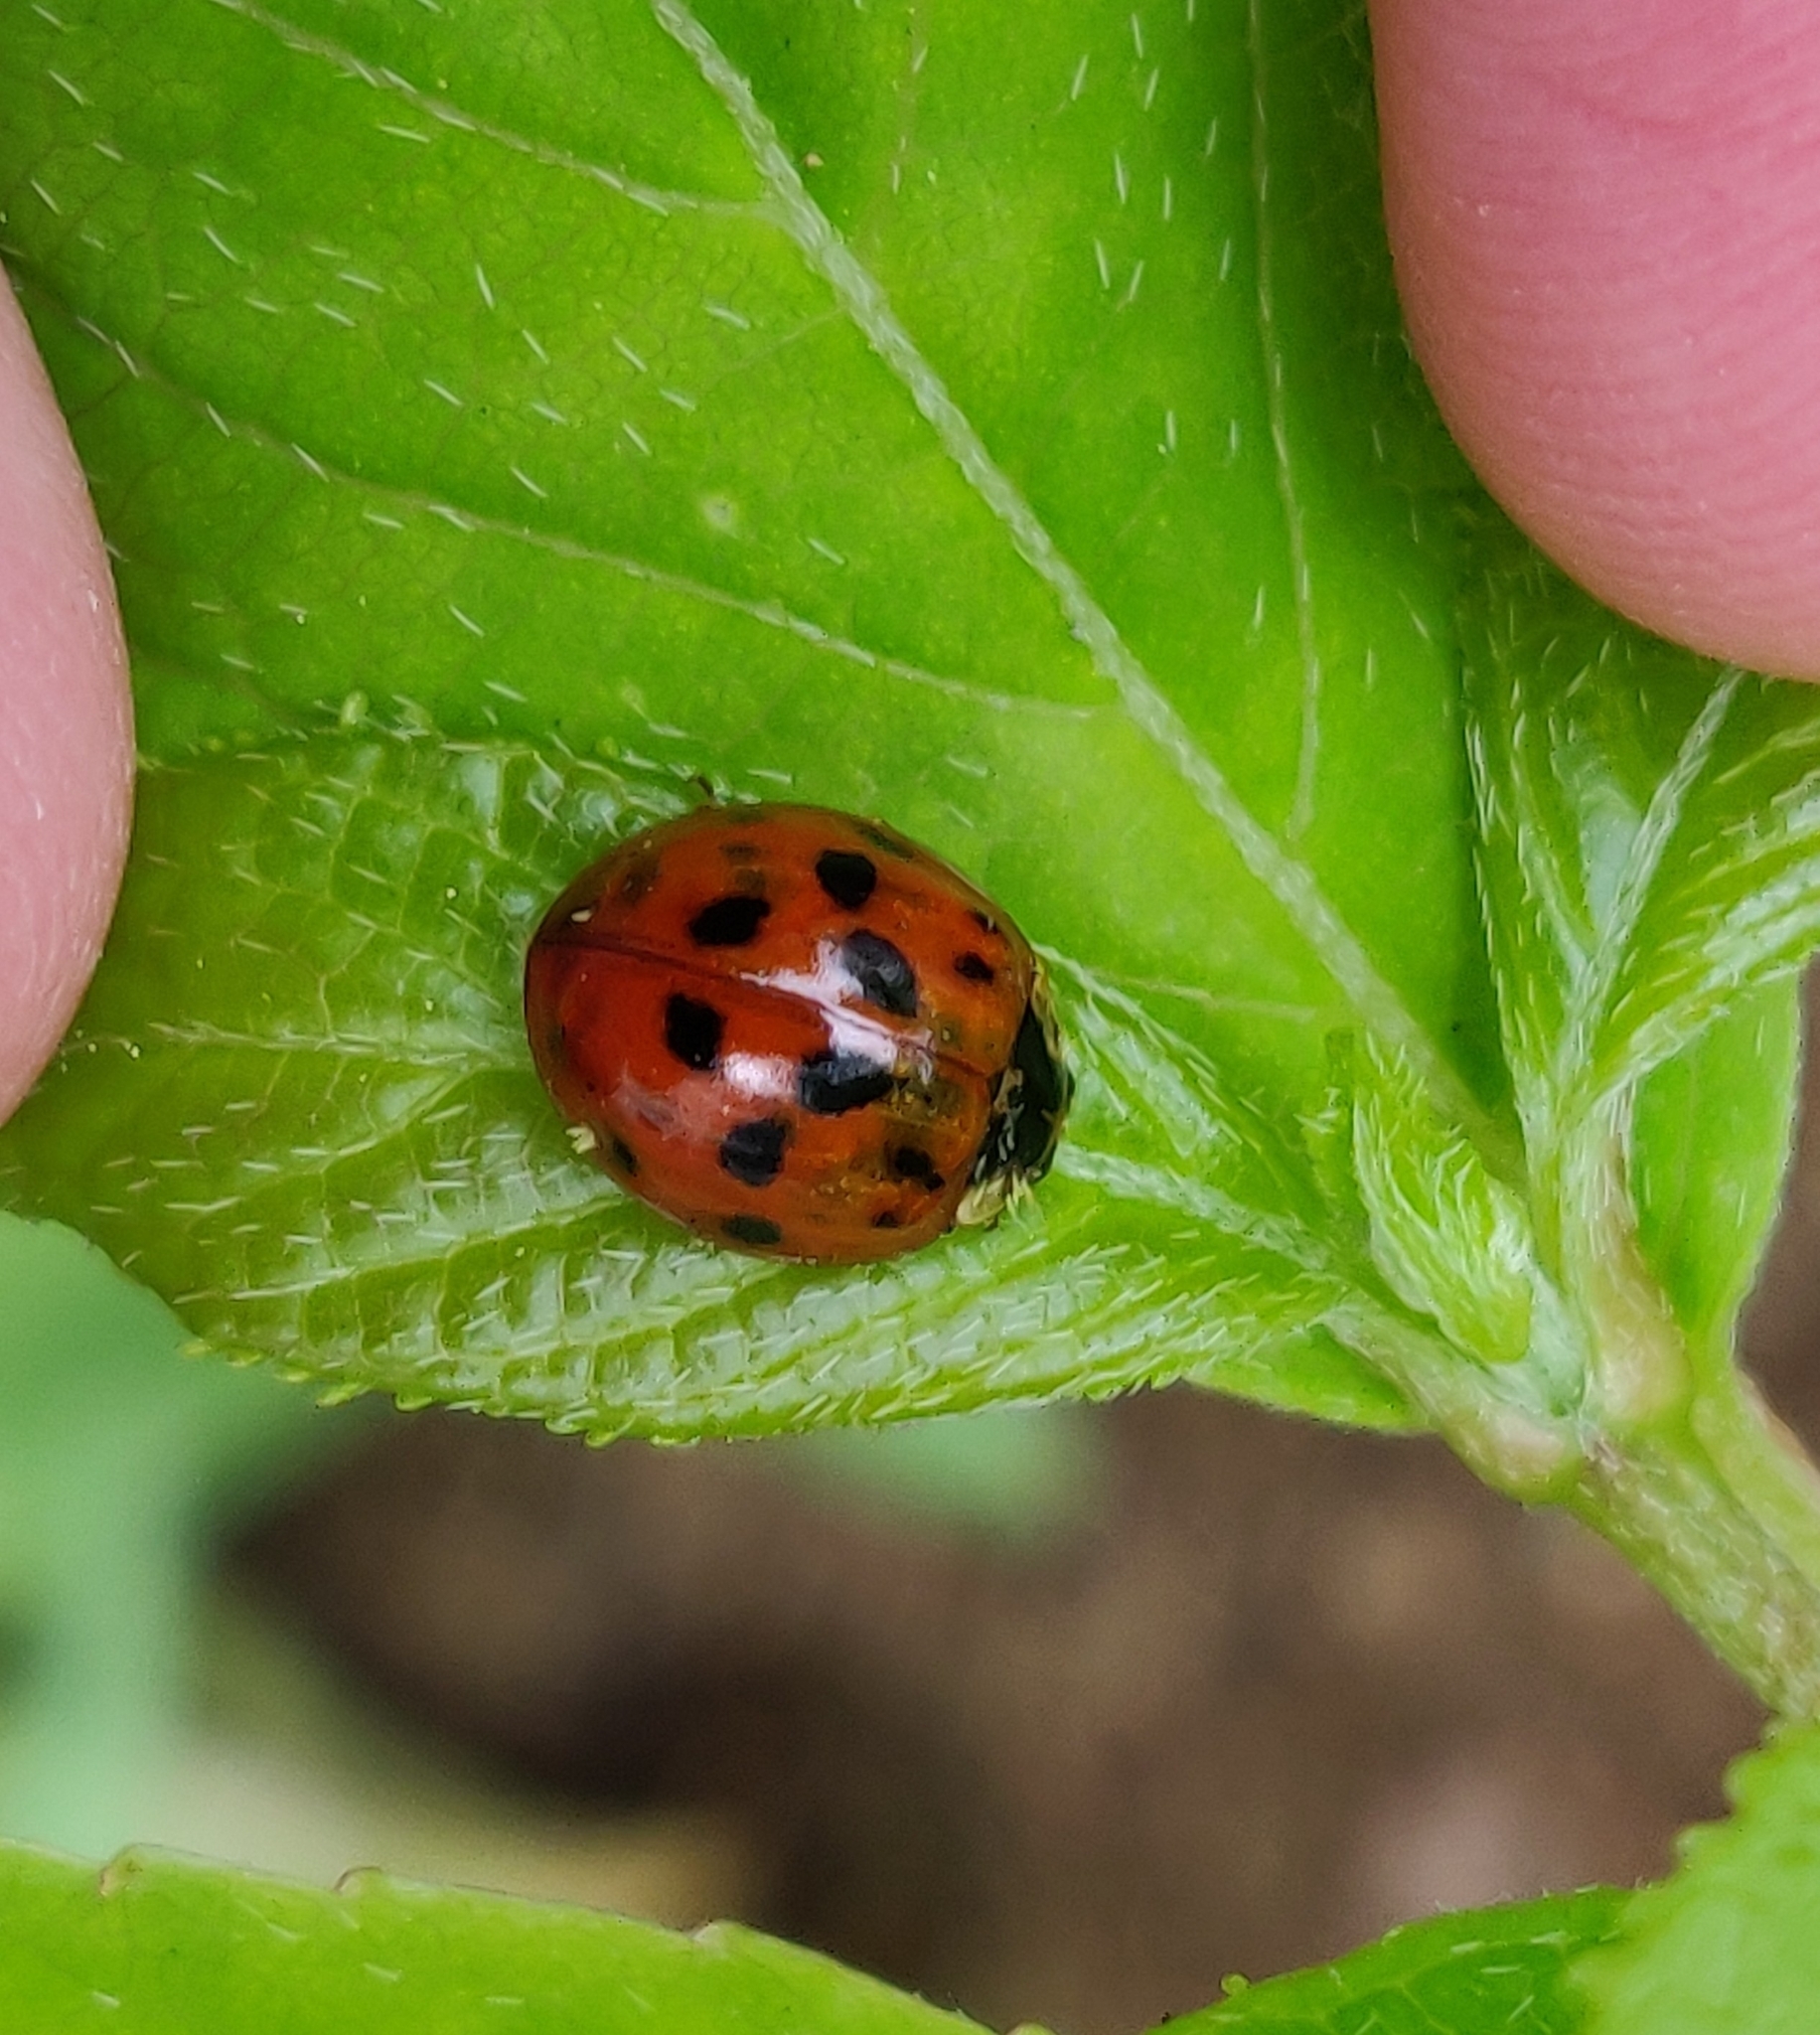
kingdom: Animalia
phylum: Arthropoda
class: Insecta
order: Coleoptera
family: Coccinellidae
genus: Harmonia
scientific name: Harmonia axyridis
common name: Harlequin ladybird
